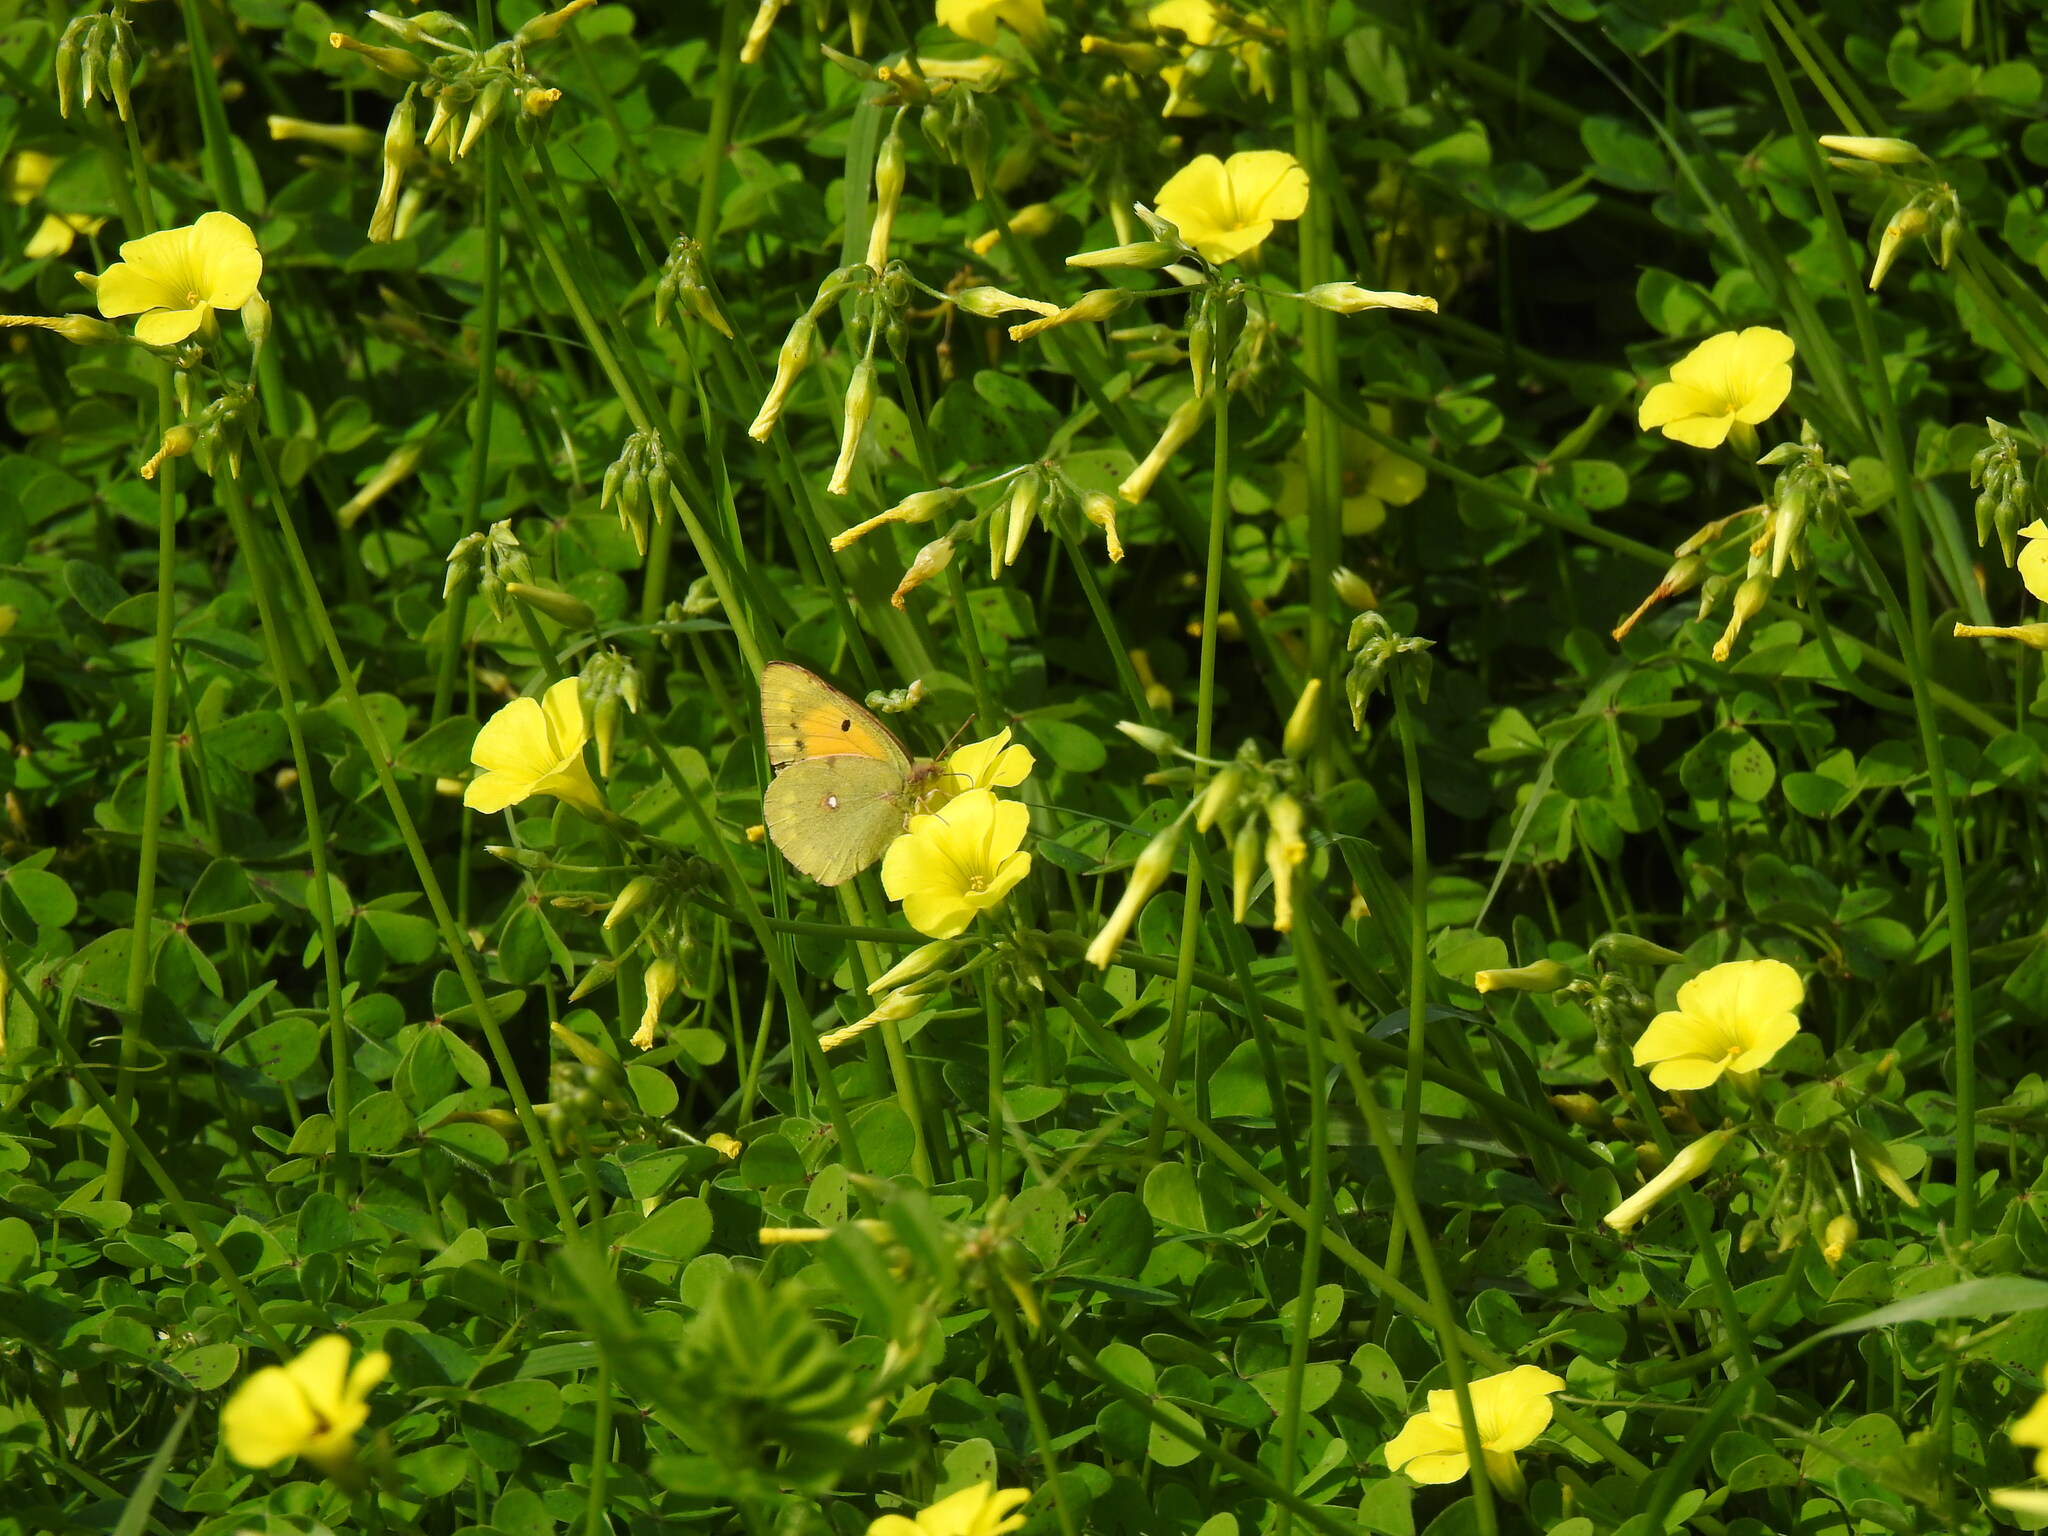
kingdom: Animalia
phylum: Arthropoda
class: Insecta
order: Lepidoptera
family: Pieridae
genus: Colias
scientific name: Colias croceus
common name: Clouded yellow
